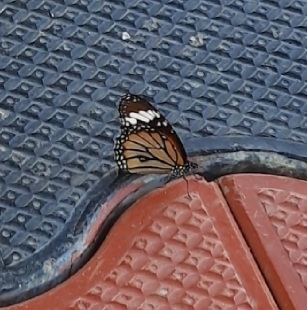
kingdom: Animalia
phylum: Arthropoda
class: Insecta
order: Lepidoptera
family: Nymphalidae
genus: Danaus
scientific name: Danaus genutia
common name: Common tiger butterfly
